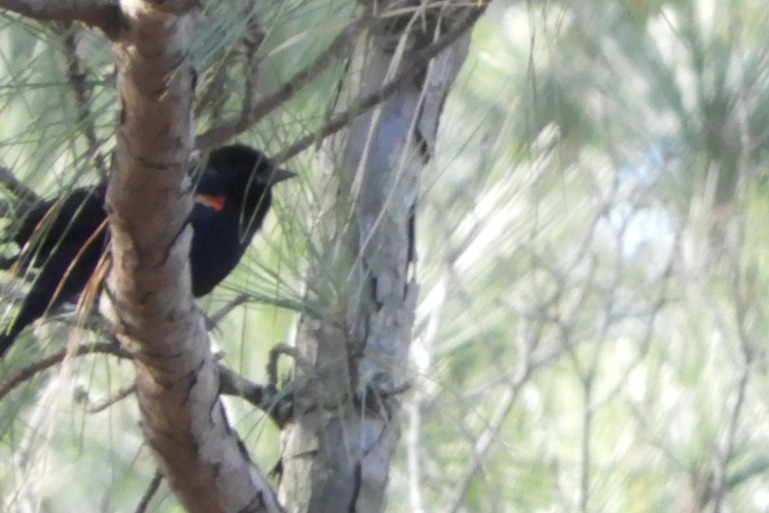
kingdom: Animalia
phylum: Chordata
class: Aves
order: Passeriformes
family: Icteridae
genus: Agelaius
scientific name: Agelaius phoeniceus
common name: Red-winged blackbird
